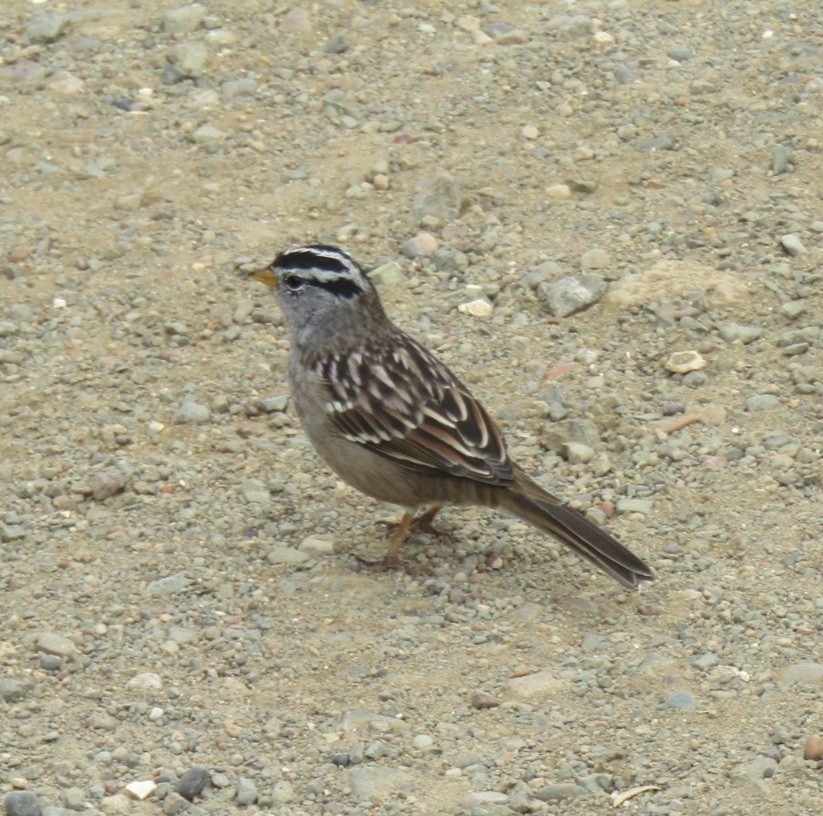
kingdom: Animalia
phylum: Chordata
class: Aves
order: Passeriformes
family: Passerellidae
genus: Zonotrichia
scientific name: Zonotrichia leucophrys
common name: White-crowned sparrow
